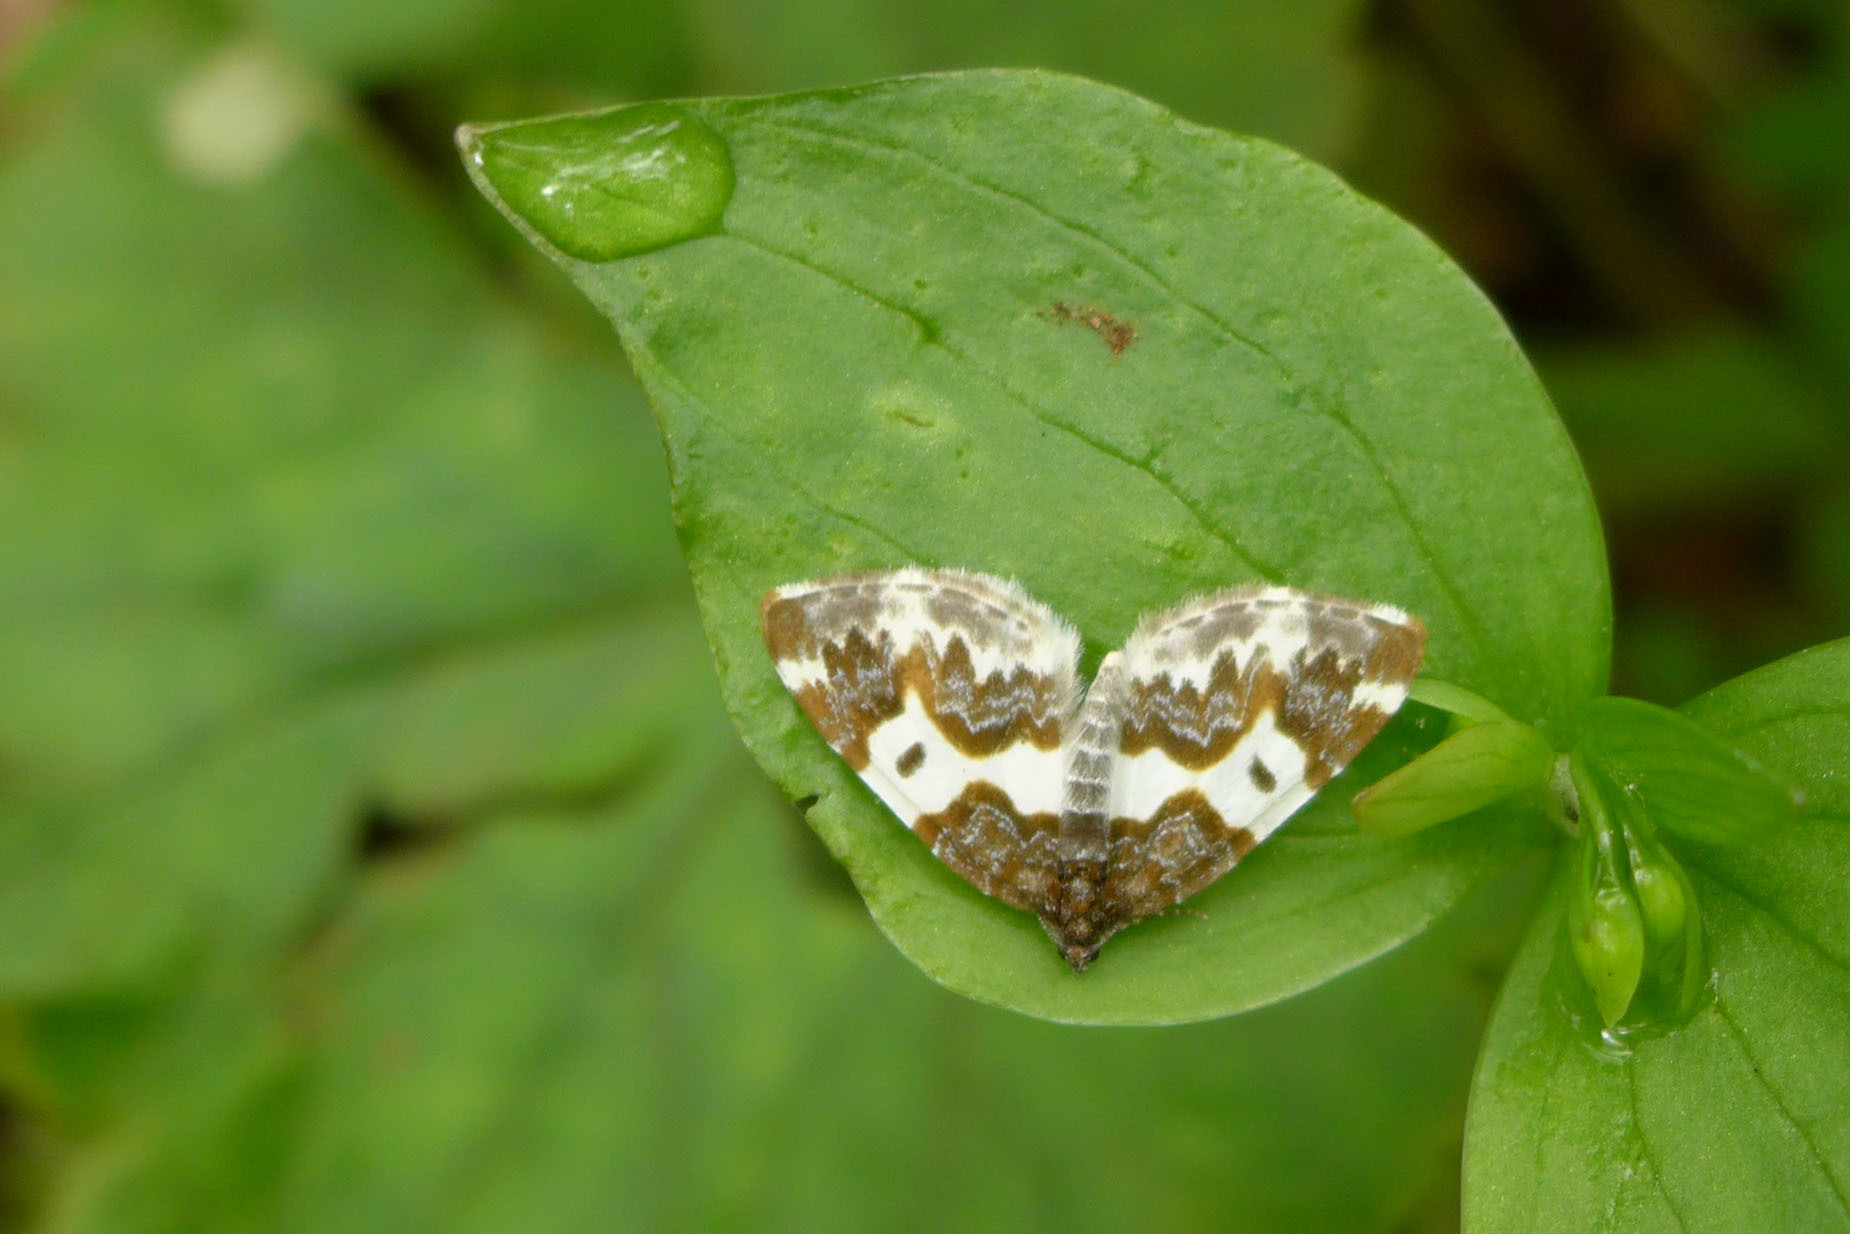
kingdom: Animalia
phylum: Arthropoda
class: Insecta
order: Lepidoptera
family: Geometridae
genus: Mesoleuca
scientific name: Mesoleuca gratulata
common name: Half-white carpet moth
